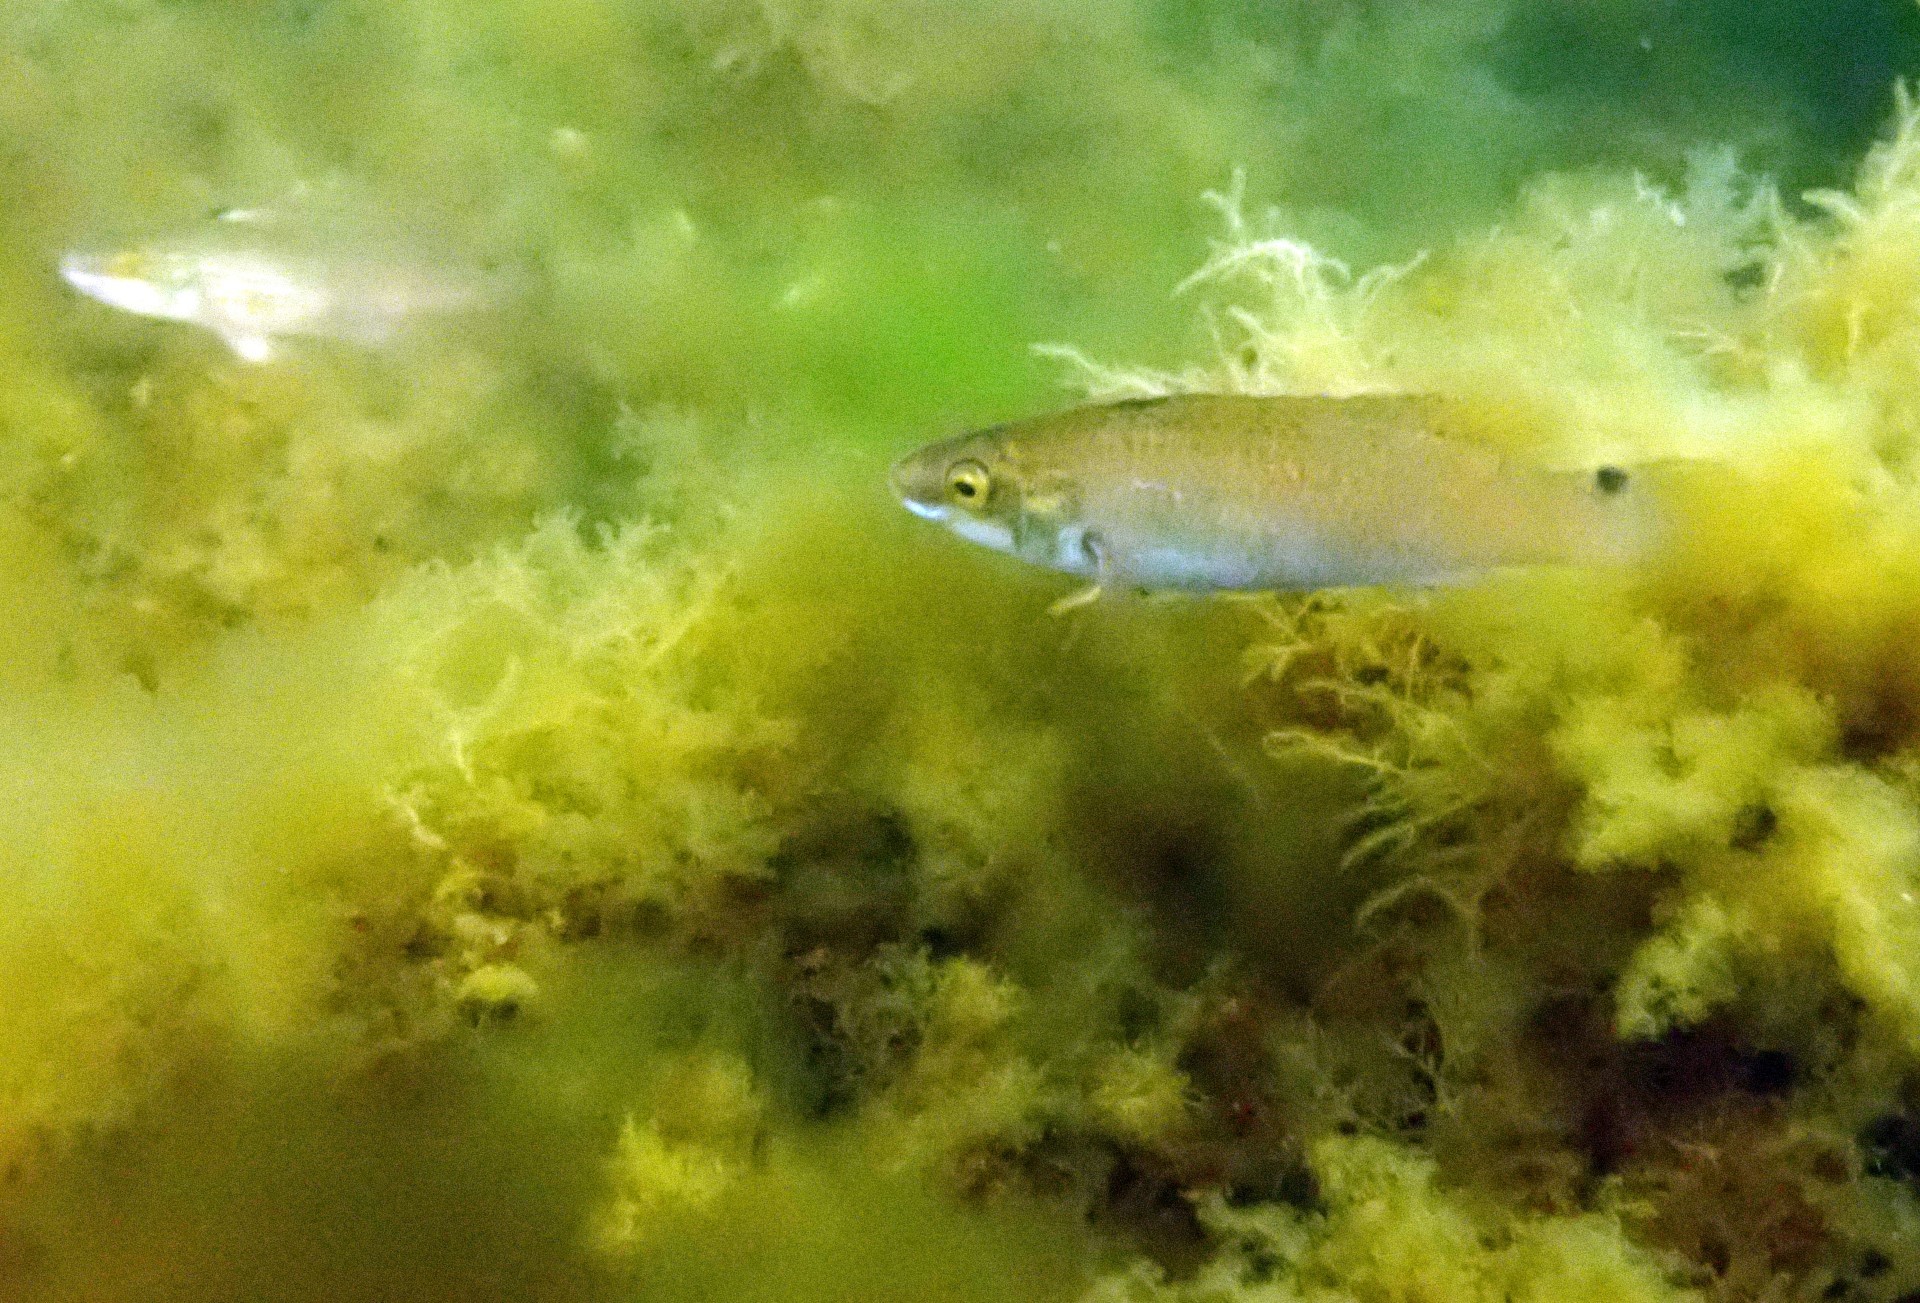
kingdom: Animalia
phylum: Chordata
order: Perciformes
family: Labridae
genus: Ctenolabrus
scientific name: Ctenolabrus rupestris
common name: Goldsinny
